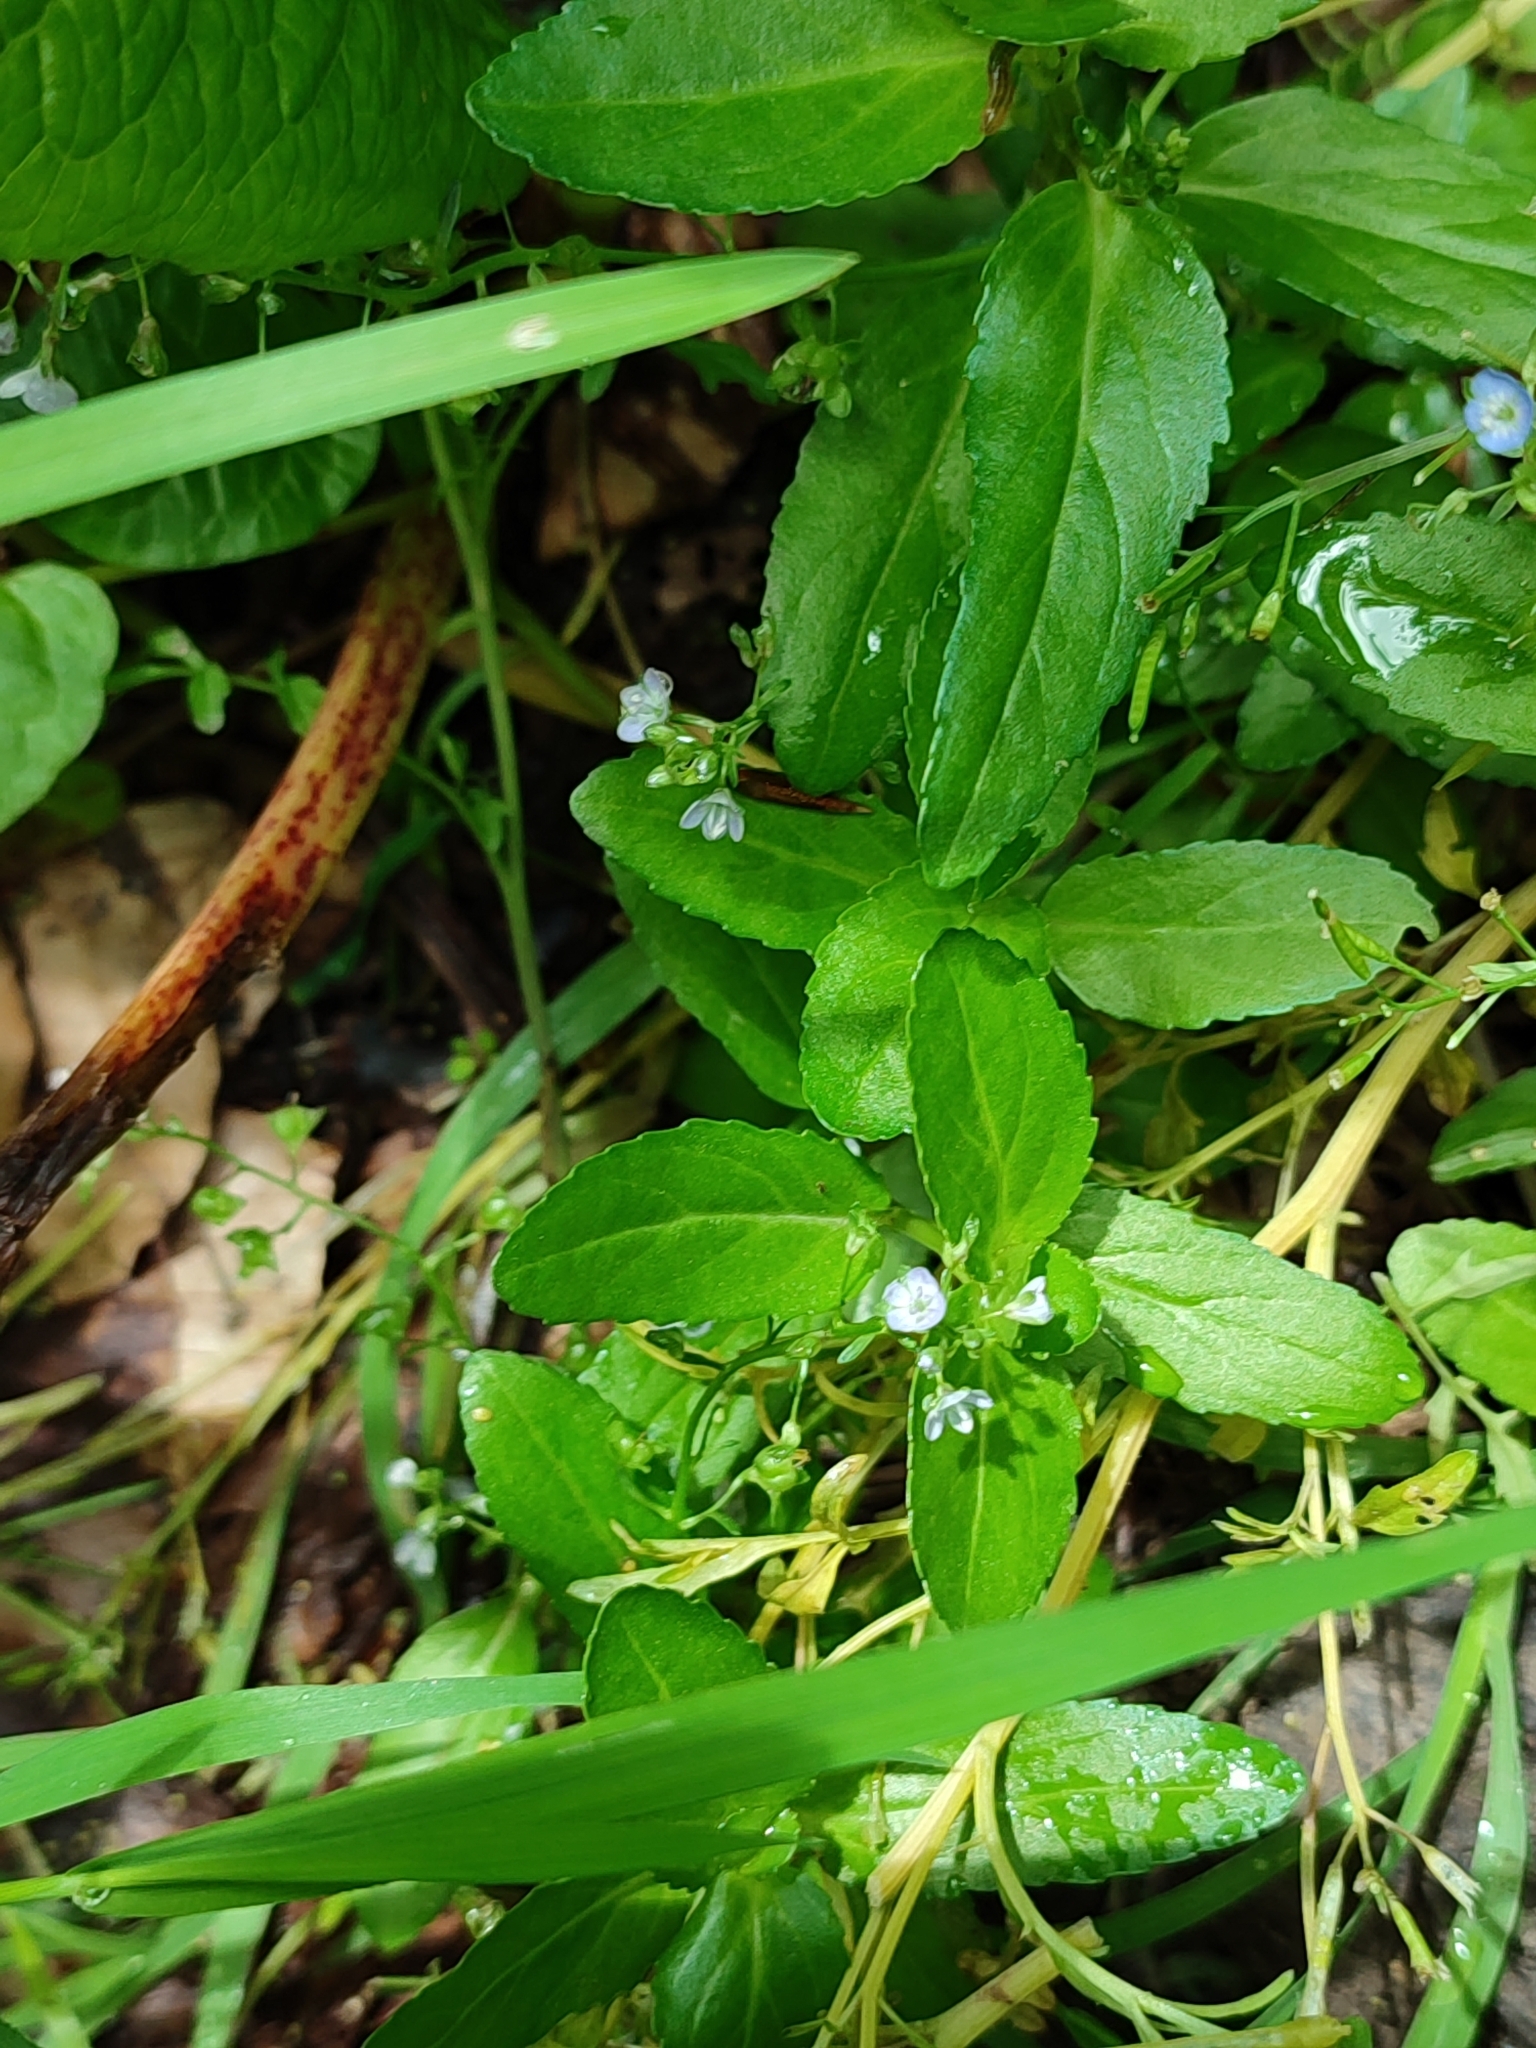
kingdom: Plantae
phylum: Tracheophyta
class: Magnoliopsida
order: Lamiales
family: Plantaginaceae
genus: Veronica
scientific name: Veronica beccabunga
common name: Brooklime
